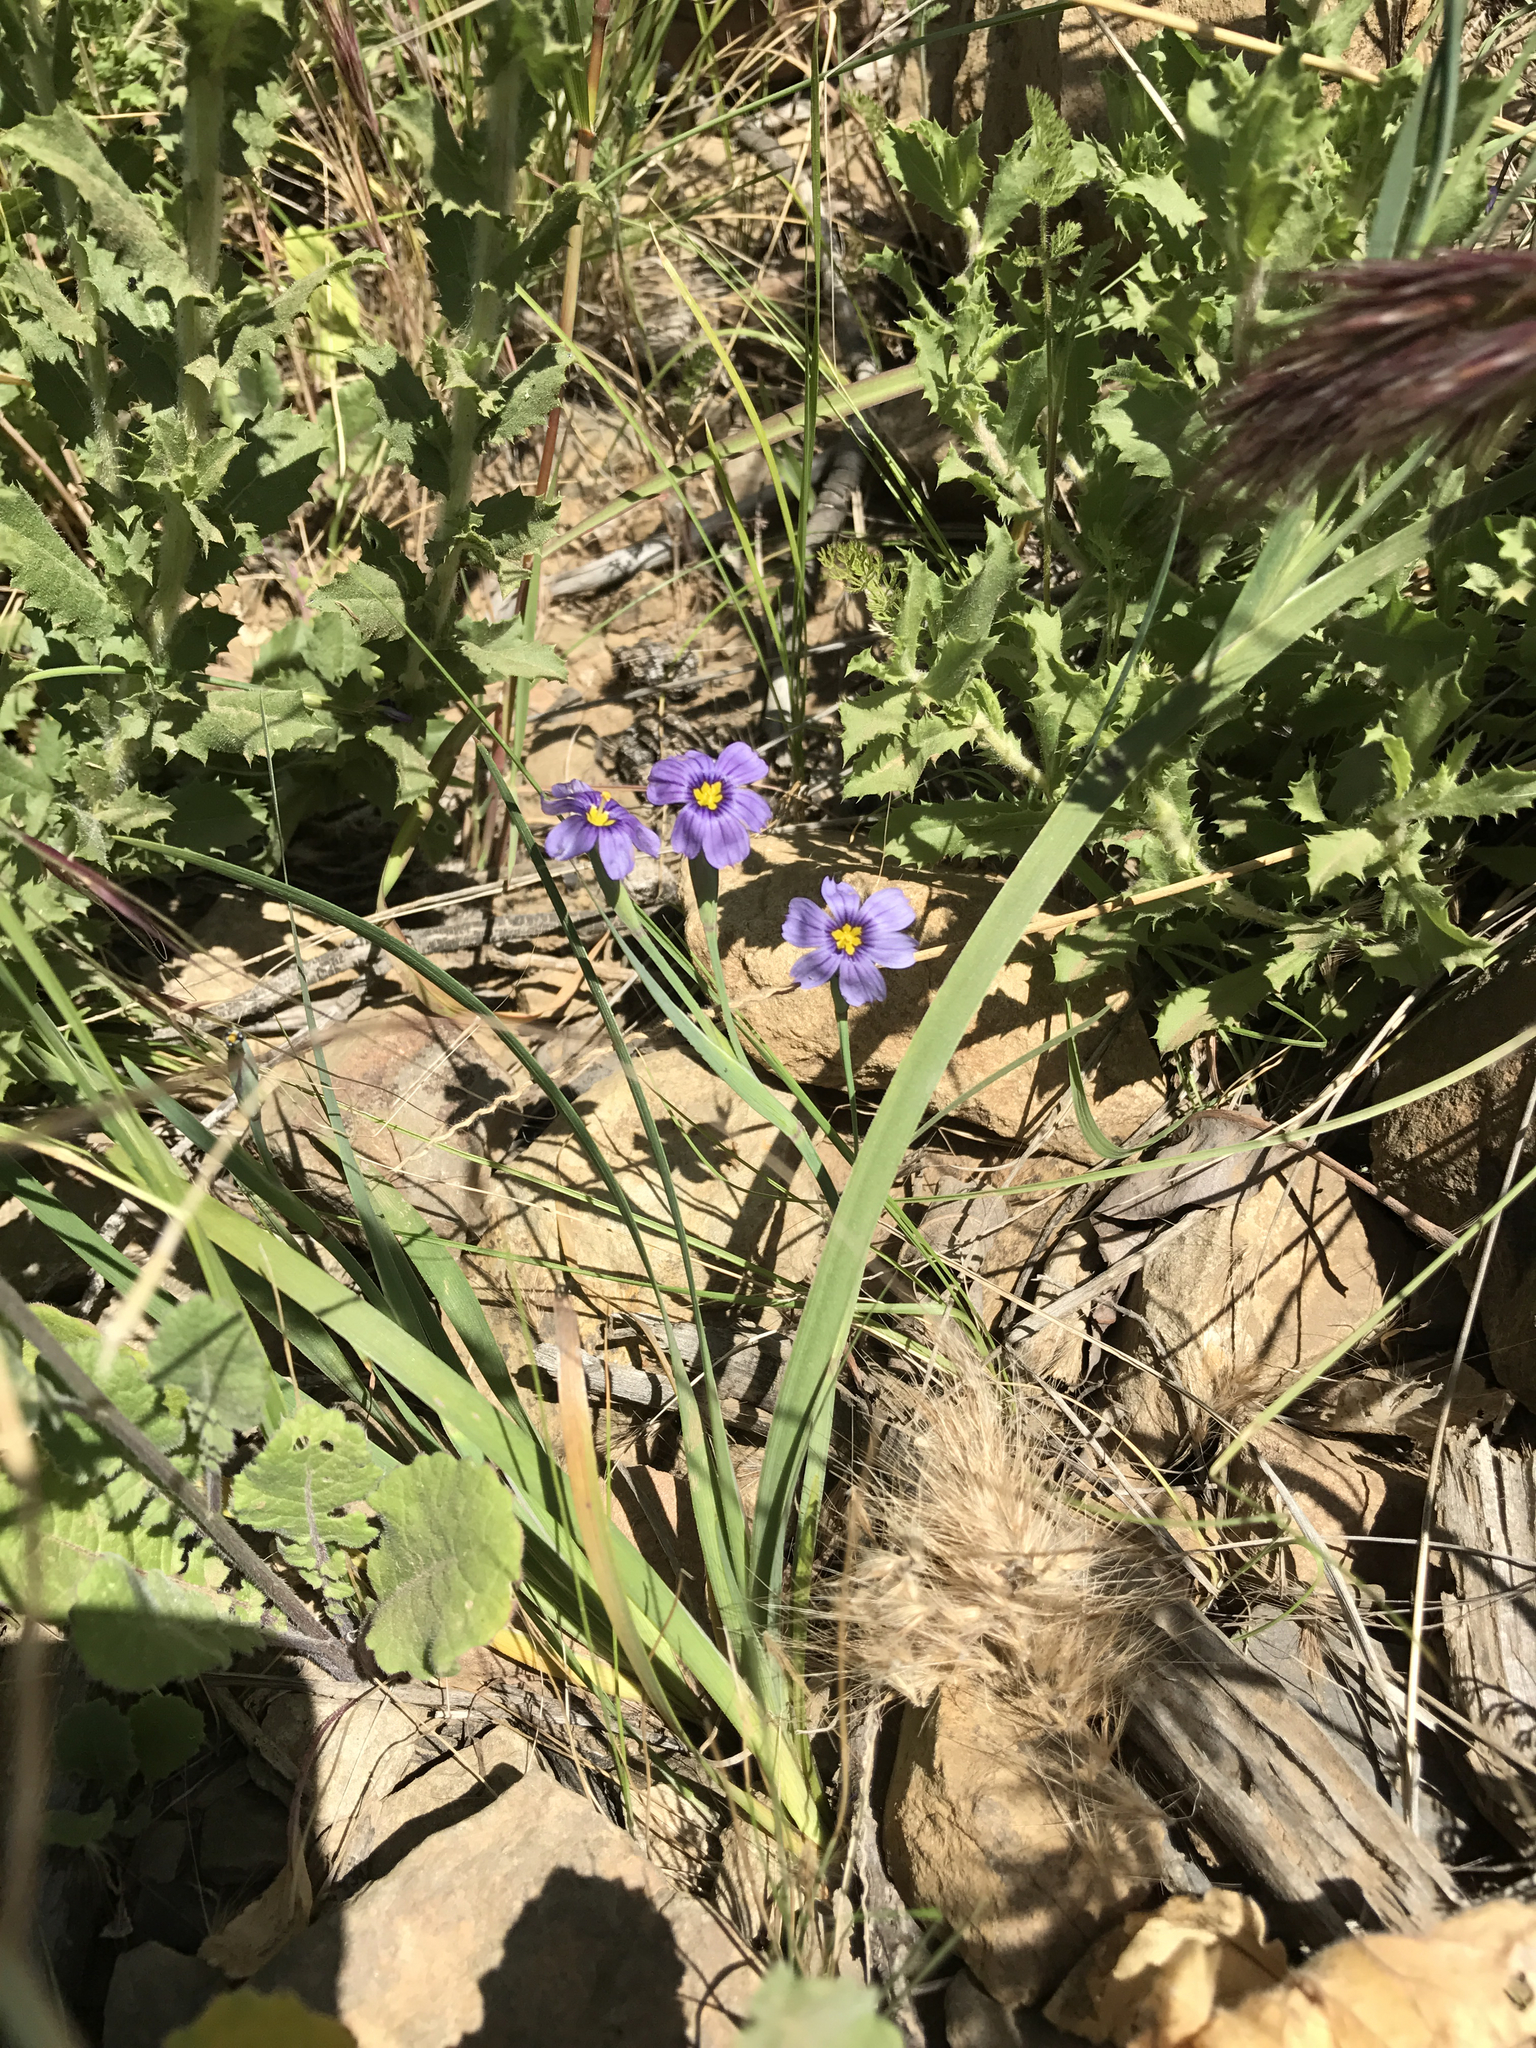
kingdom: Plantae
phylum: Tracheophyta
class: Liliopsida
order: Asparagales
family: Iridaceae
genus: Sisyrinchium
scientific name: Sisyrinchium bellum
